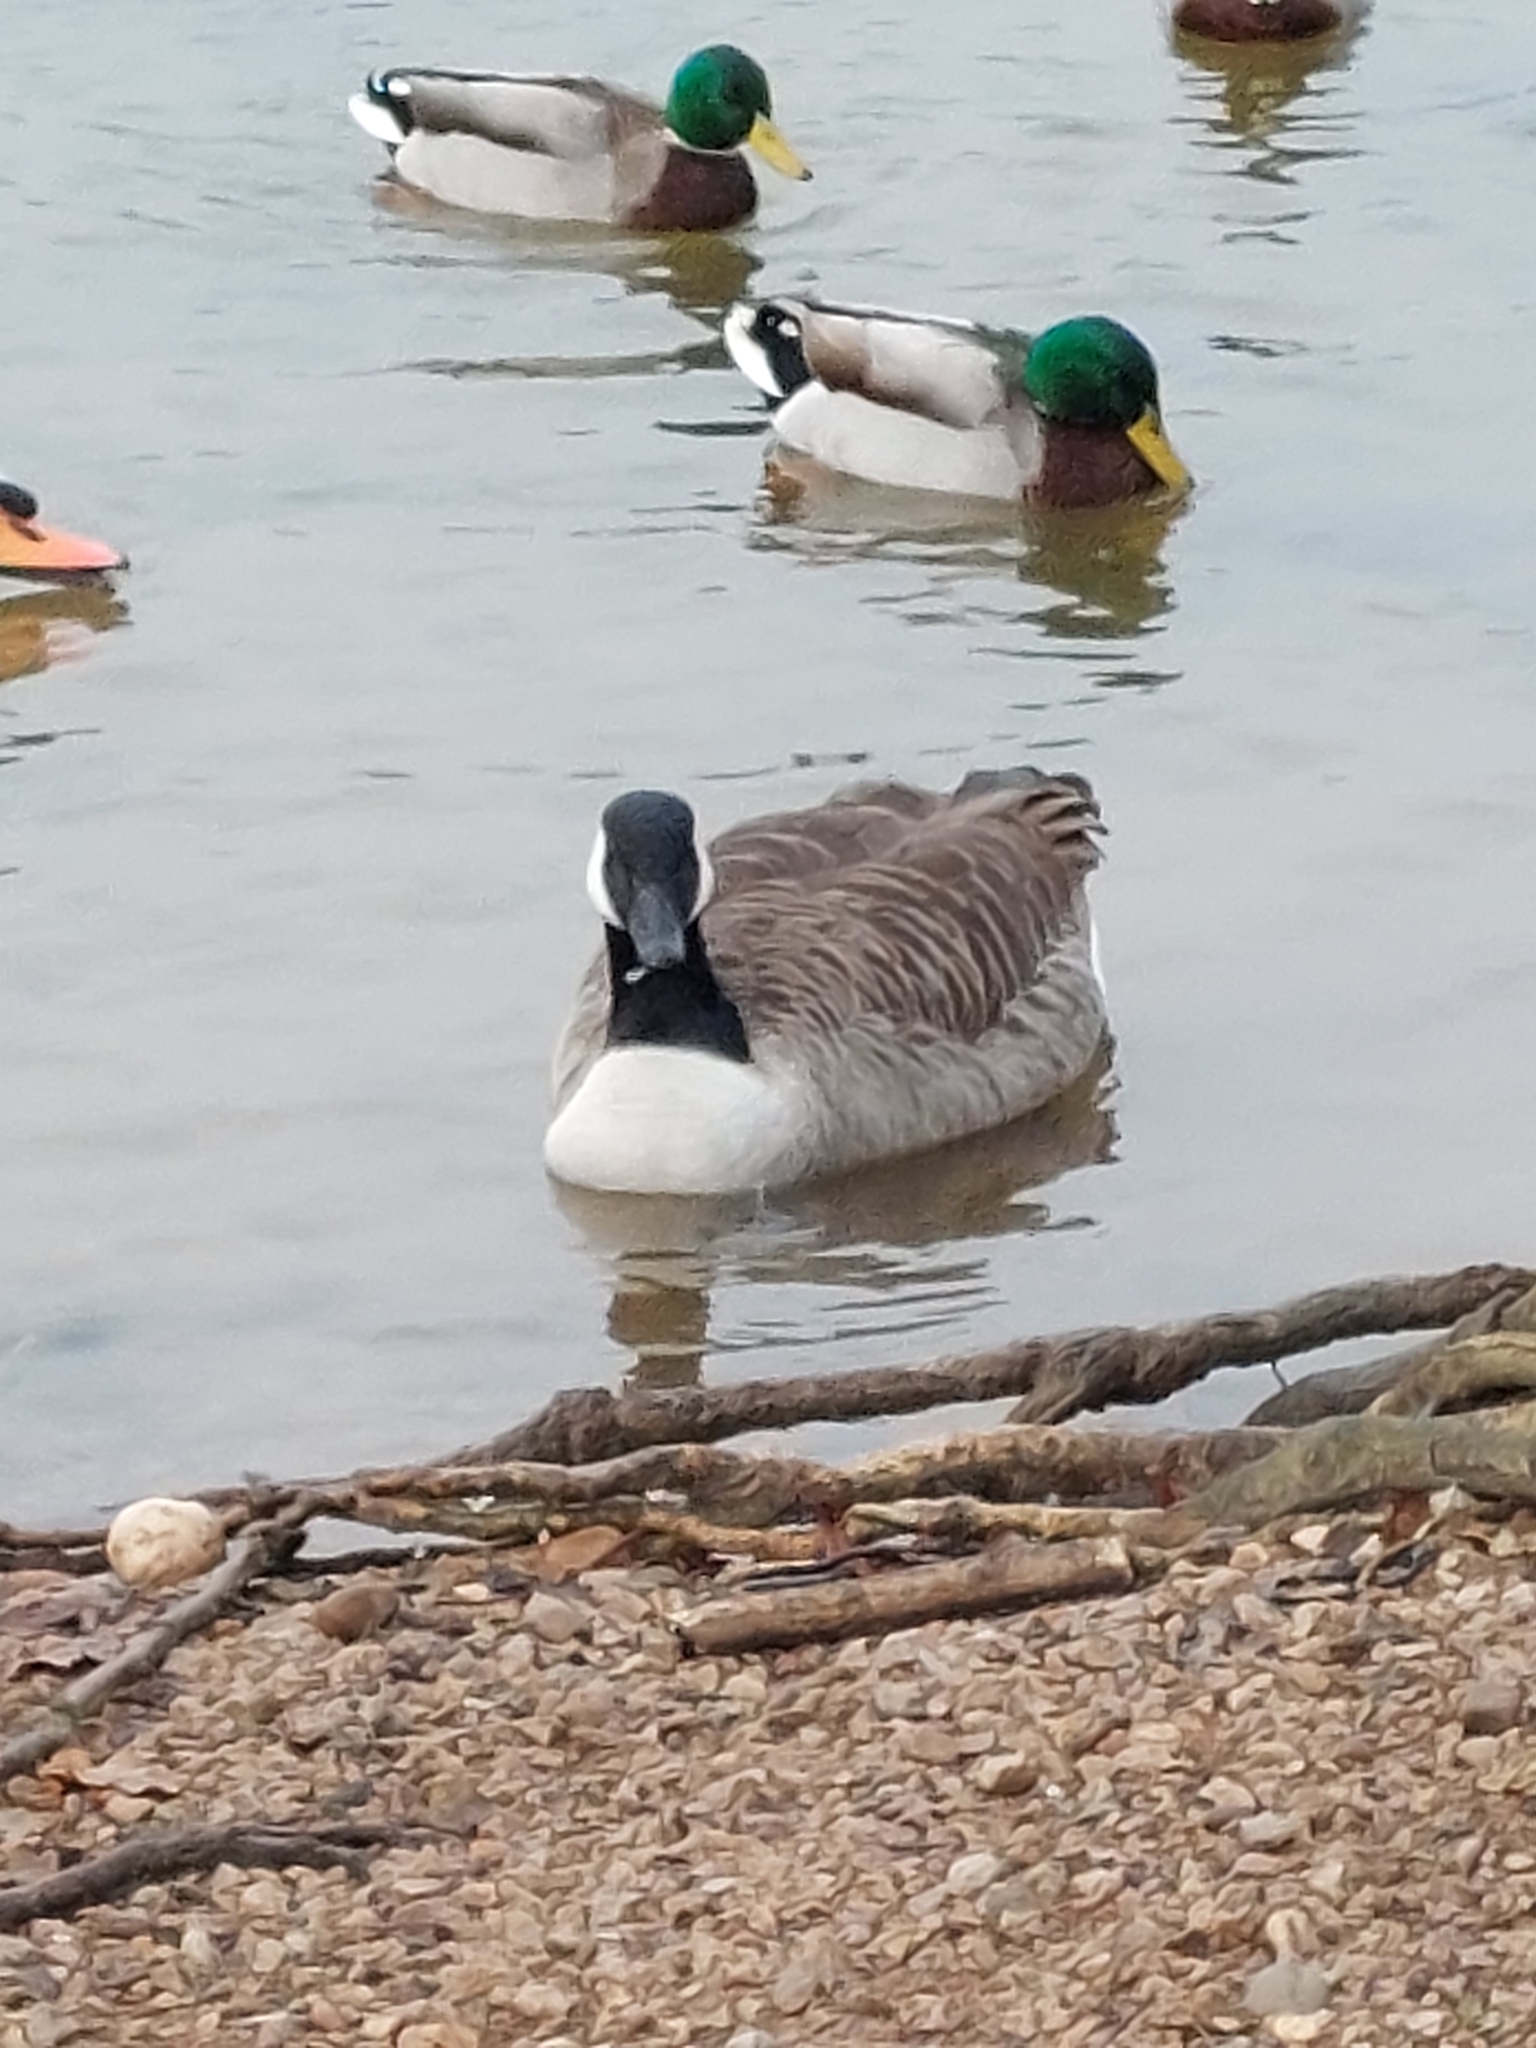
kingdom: Animalia
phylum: Chordata
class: Aves
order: Anseriformes
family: Anatidae
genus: Branta
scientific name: Branta canadensis
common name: Canada goose
